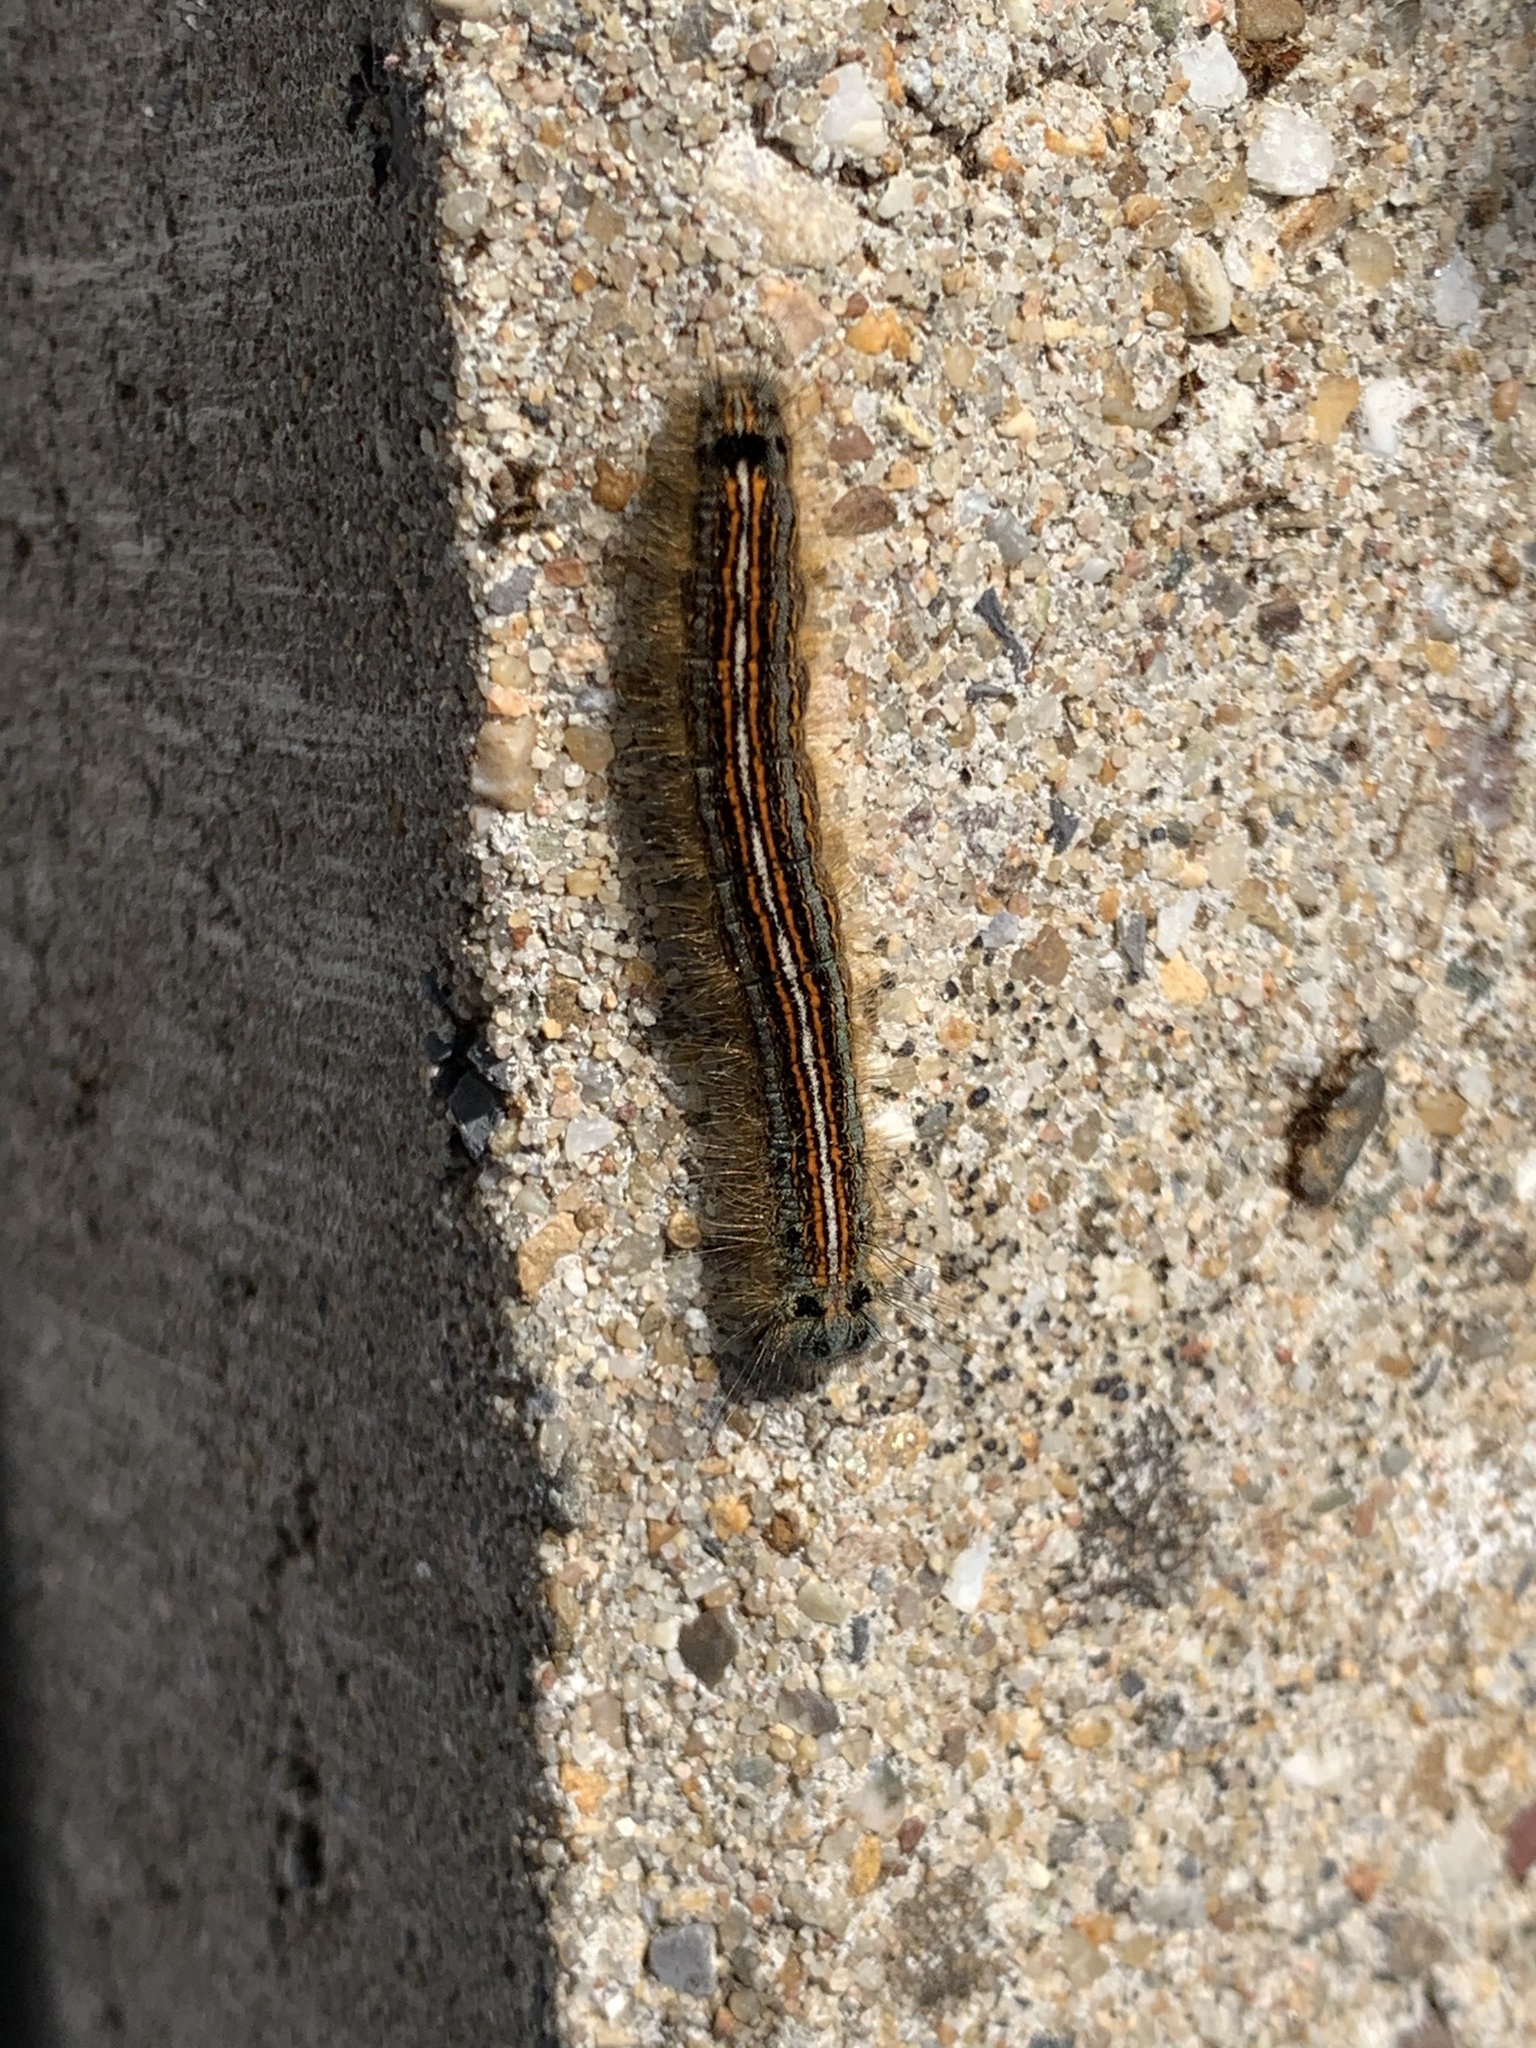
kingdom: Animalia
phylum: Arthropoda
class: Insecta
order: Lepidoptera
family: Lasiocampidae
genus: Malacosoma
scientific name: Malacosoma neustria
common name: The lackey
